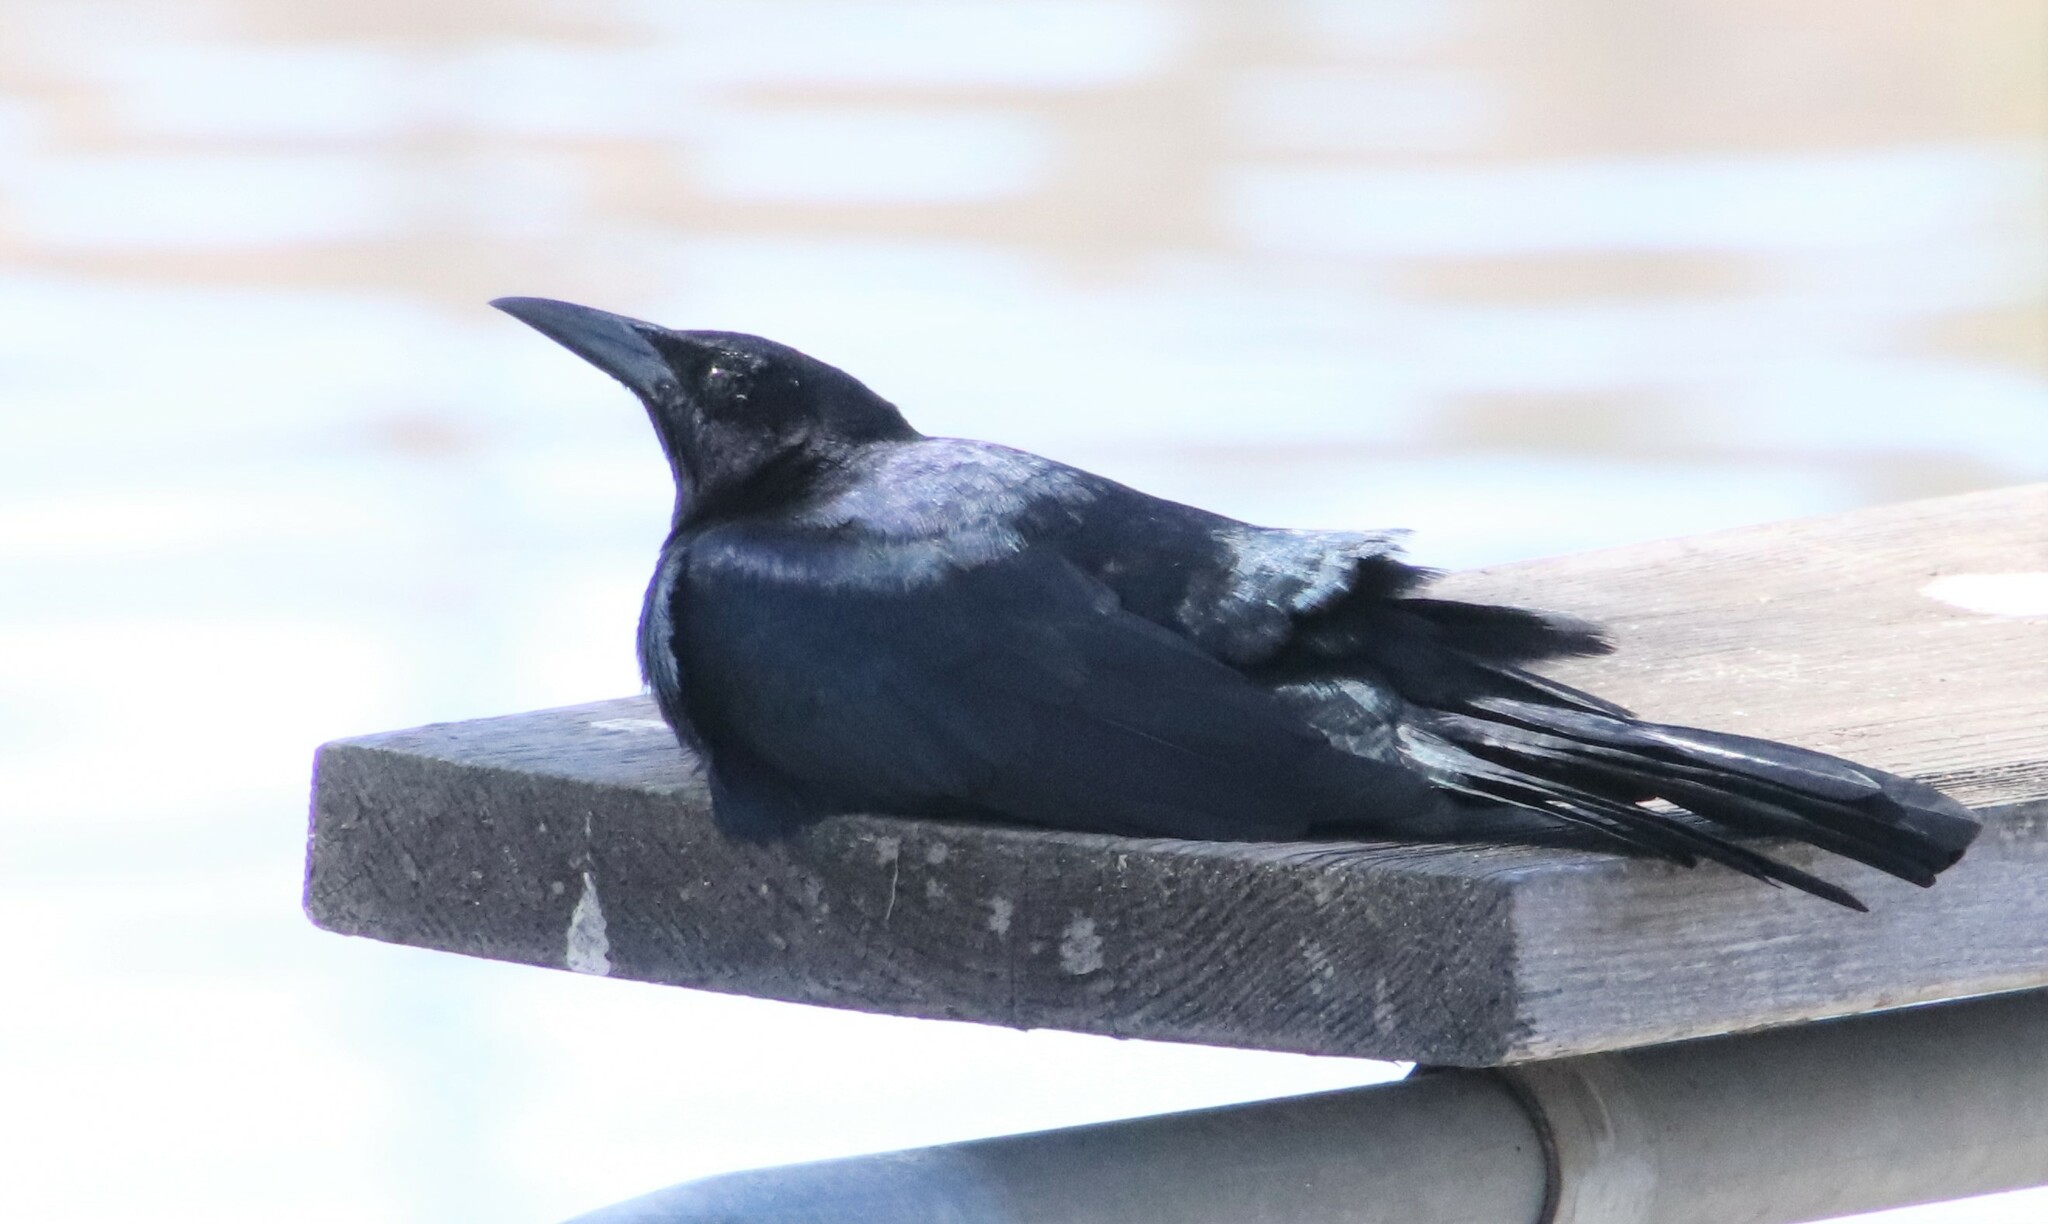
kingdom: Animalia
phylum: Chordata
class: Aves
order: Passeriformes
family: Icteridae
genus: Quiscalus
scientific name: Quiscalus mexicanus
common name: Great-tailed grackle
